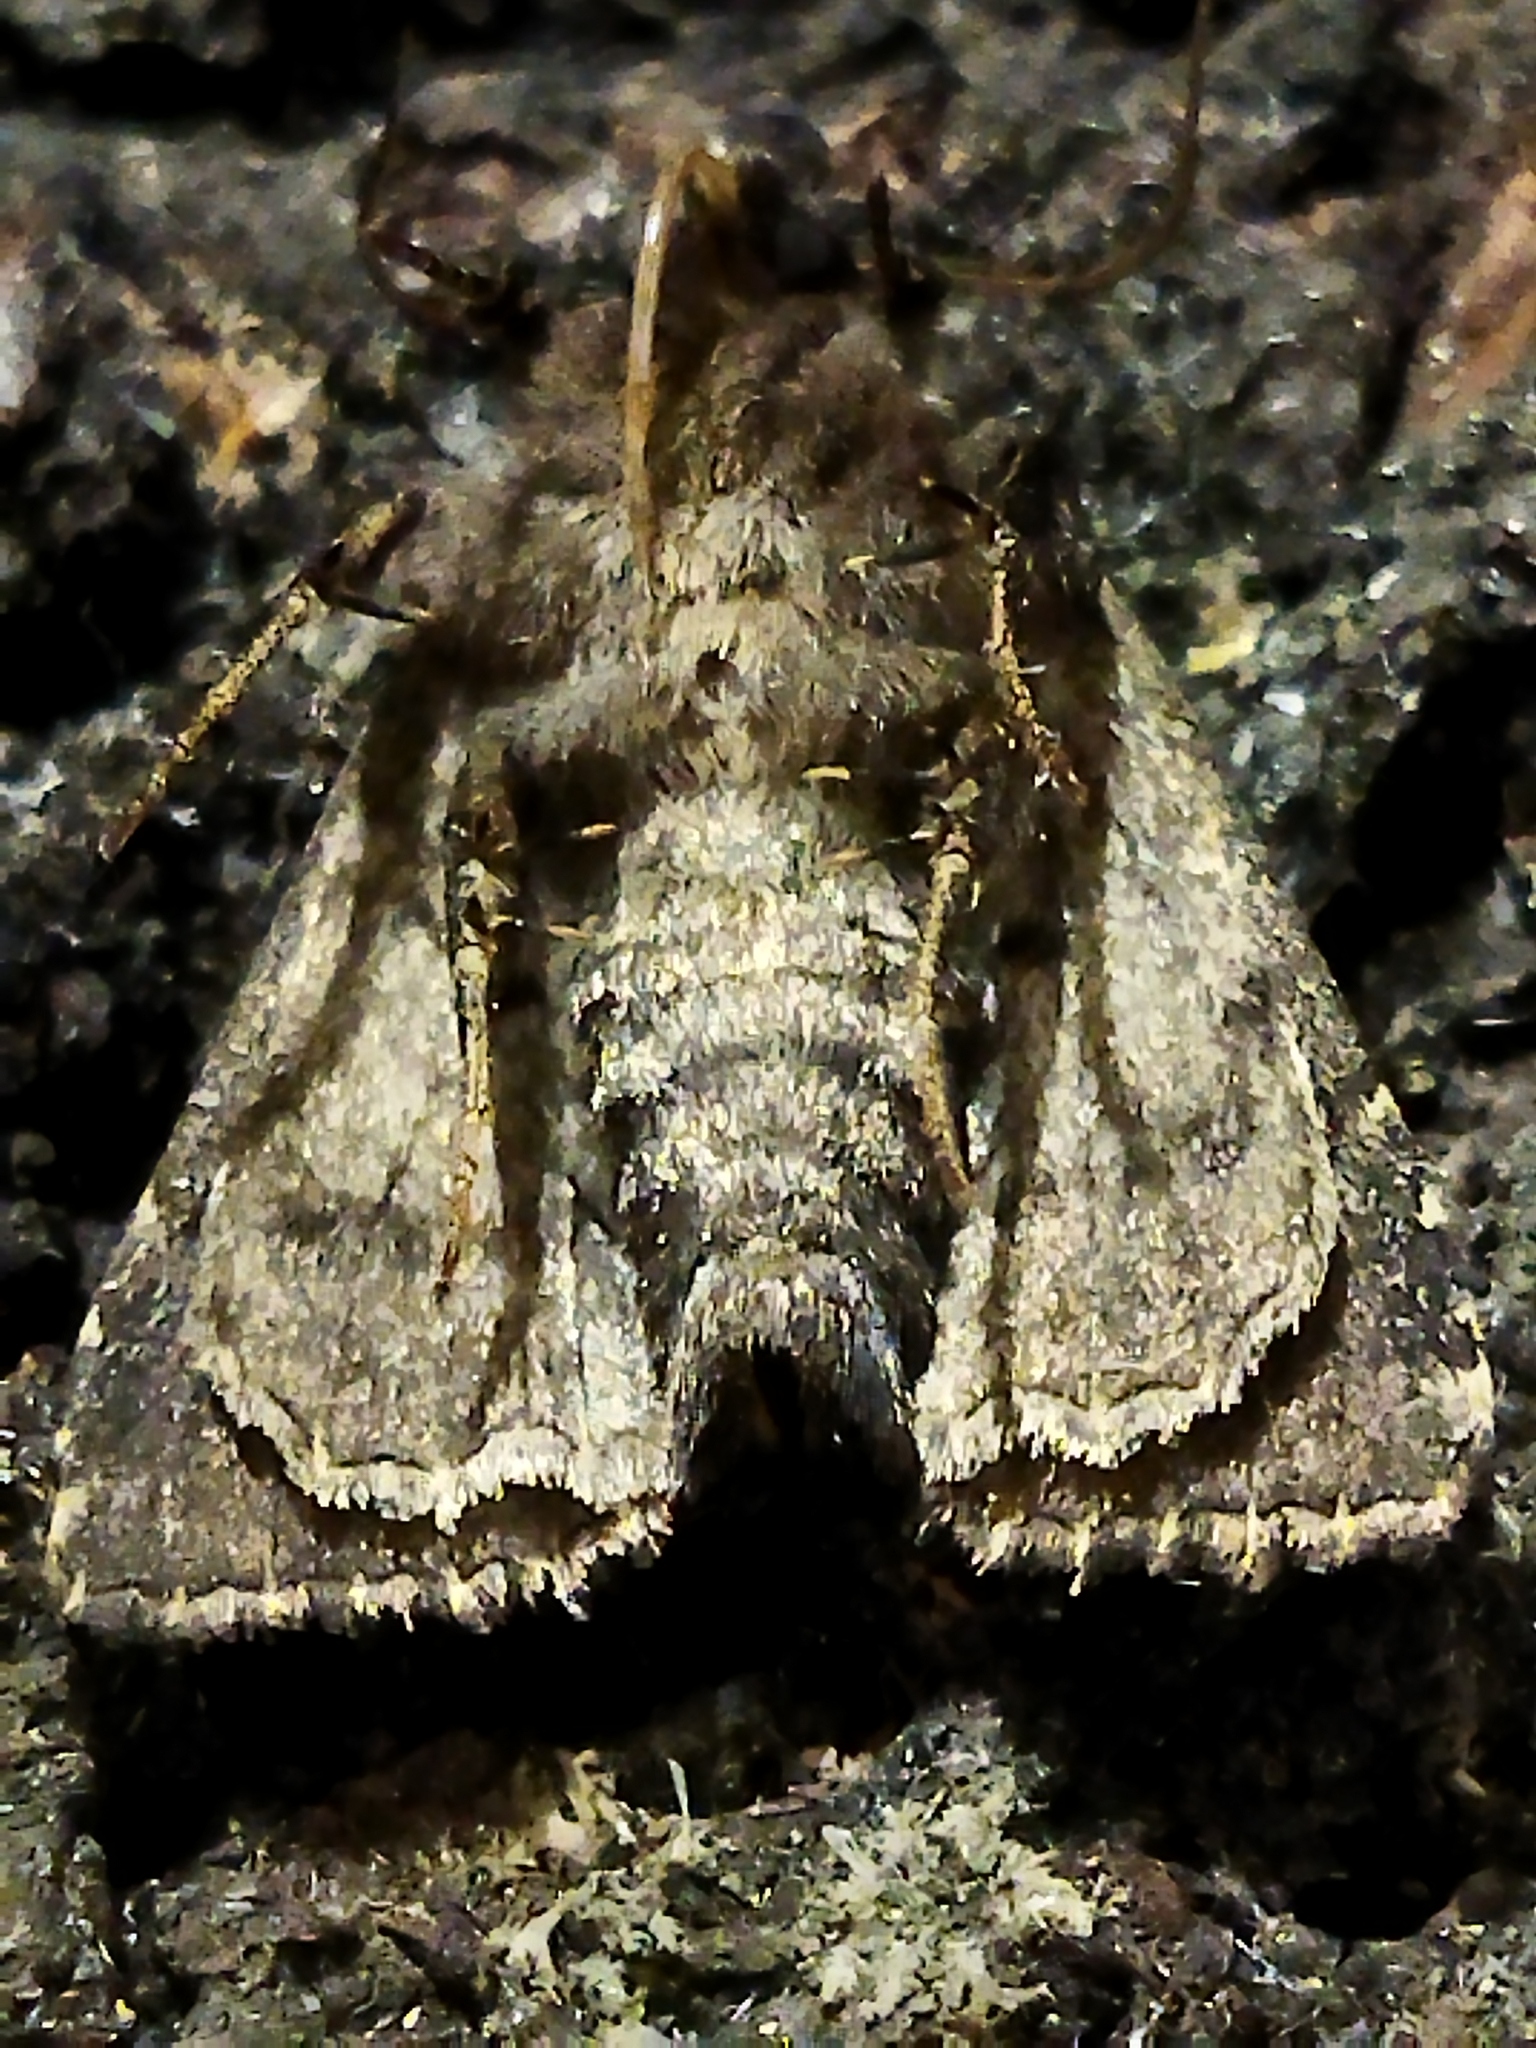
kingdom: Animalia
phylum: Arthropoda
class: Insecta
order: Lepidoptera
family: Noctuidae
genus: Dypterygia
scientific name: Dypterygia scabriuscula
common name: Bird's wing
